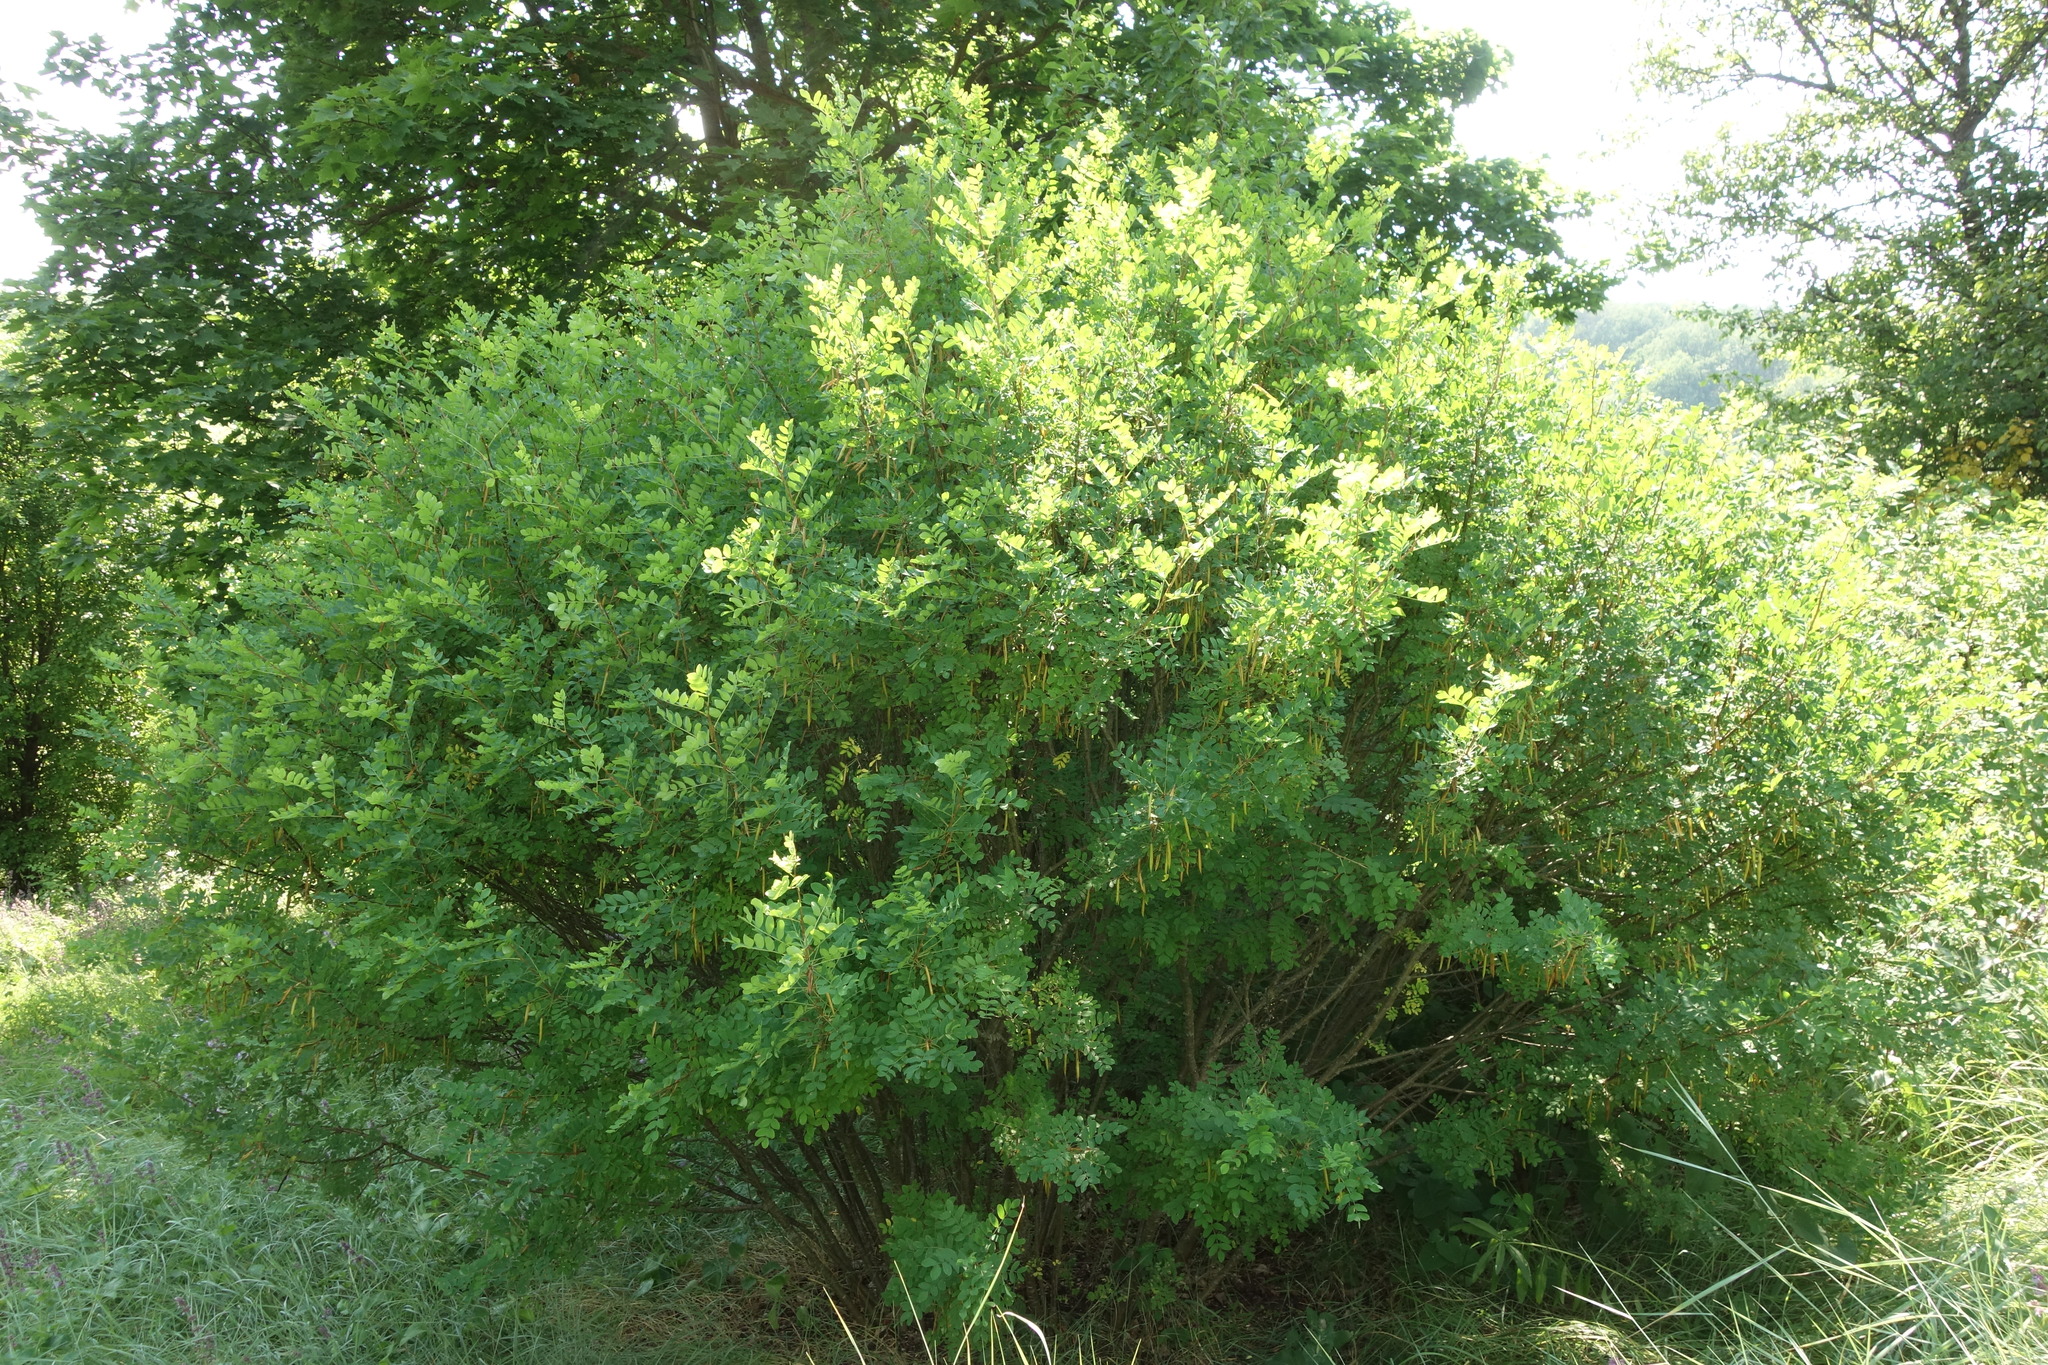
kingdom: Plantae
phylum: Tracheophyta
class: Magnoliopsida
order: Fabales
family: Fabaceae
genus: Caragana
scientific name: Caragana arborescens
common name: Siberian peashrub
